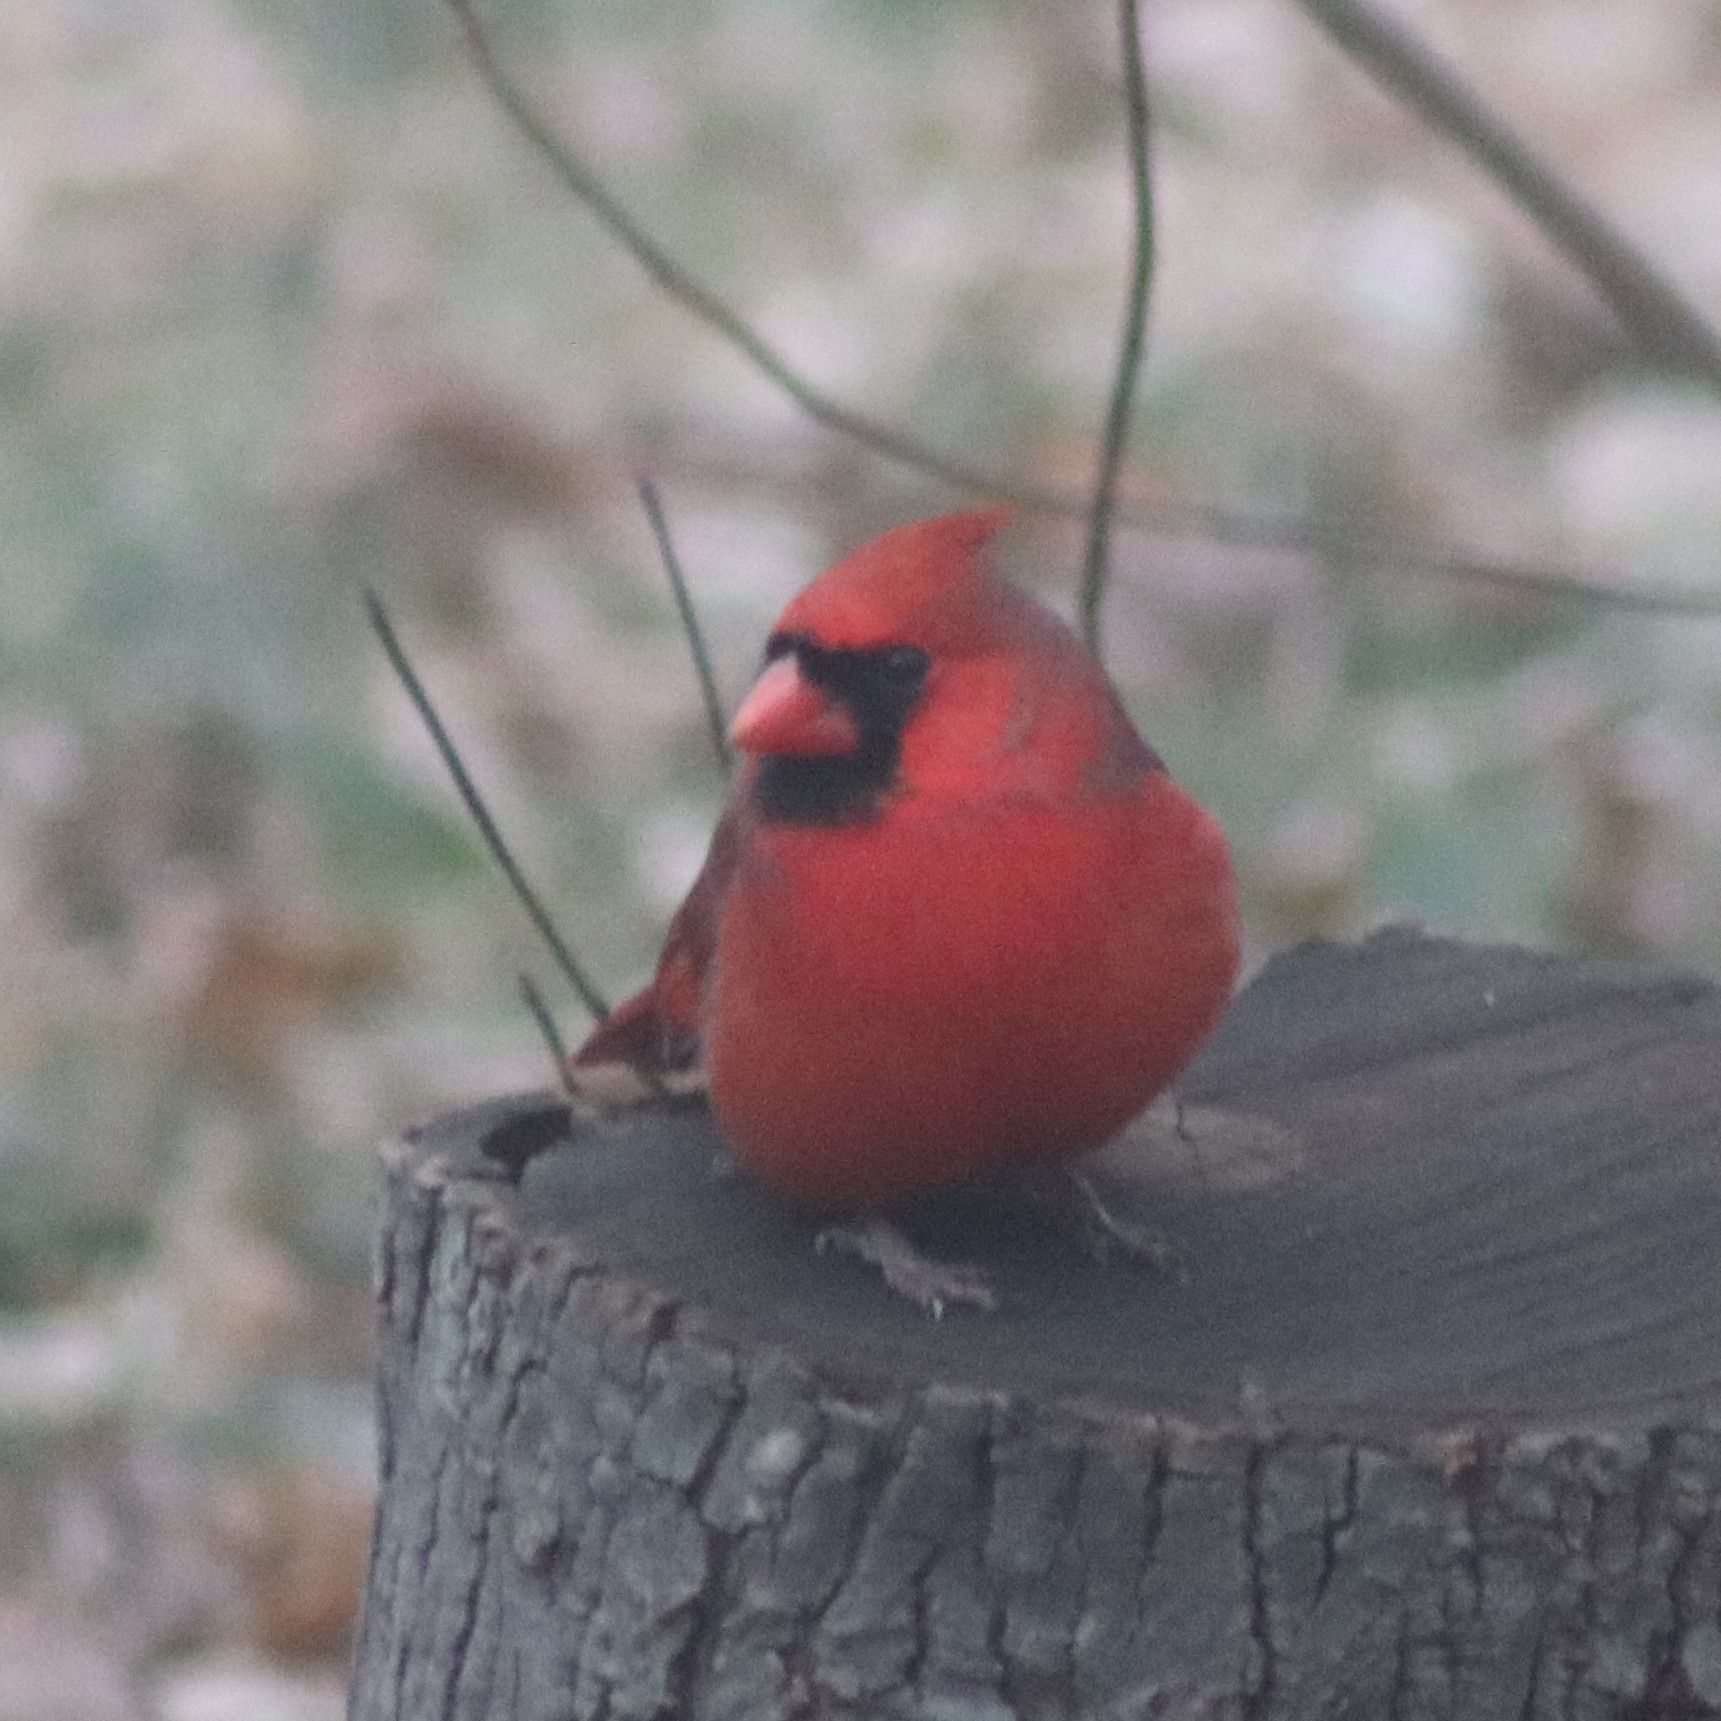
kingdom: Animalia
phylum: Chordata
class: Aves
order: Passeriformes
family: Cardinalidae
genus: Cardinalis
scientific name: Cardinalis cardinalis
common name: Northern cardinal
